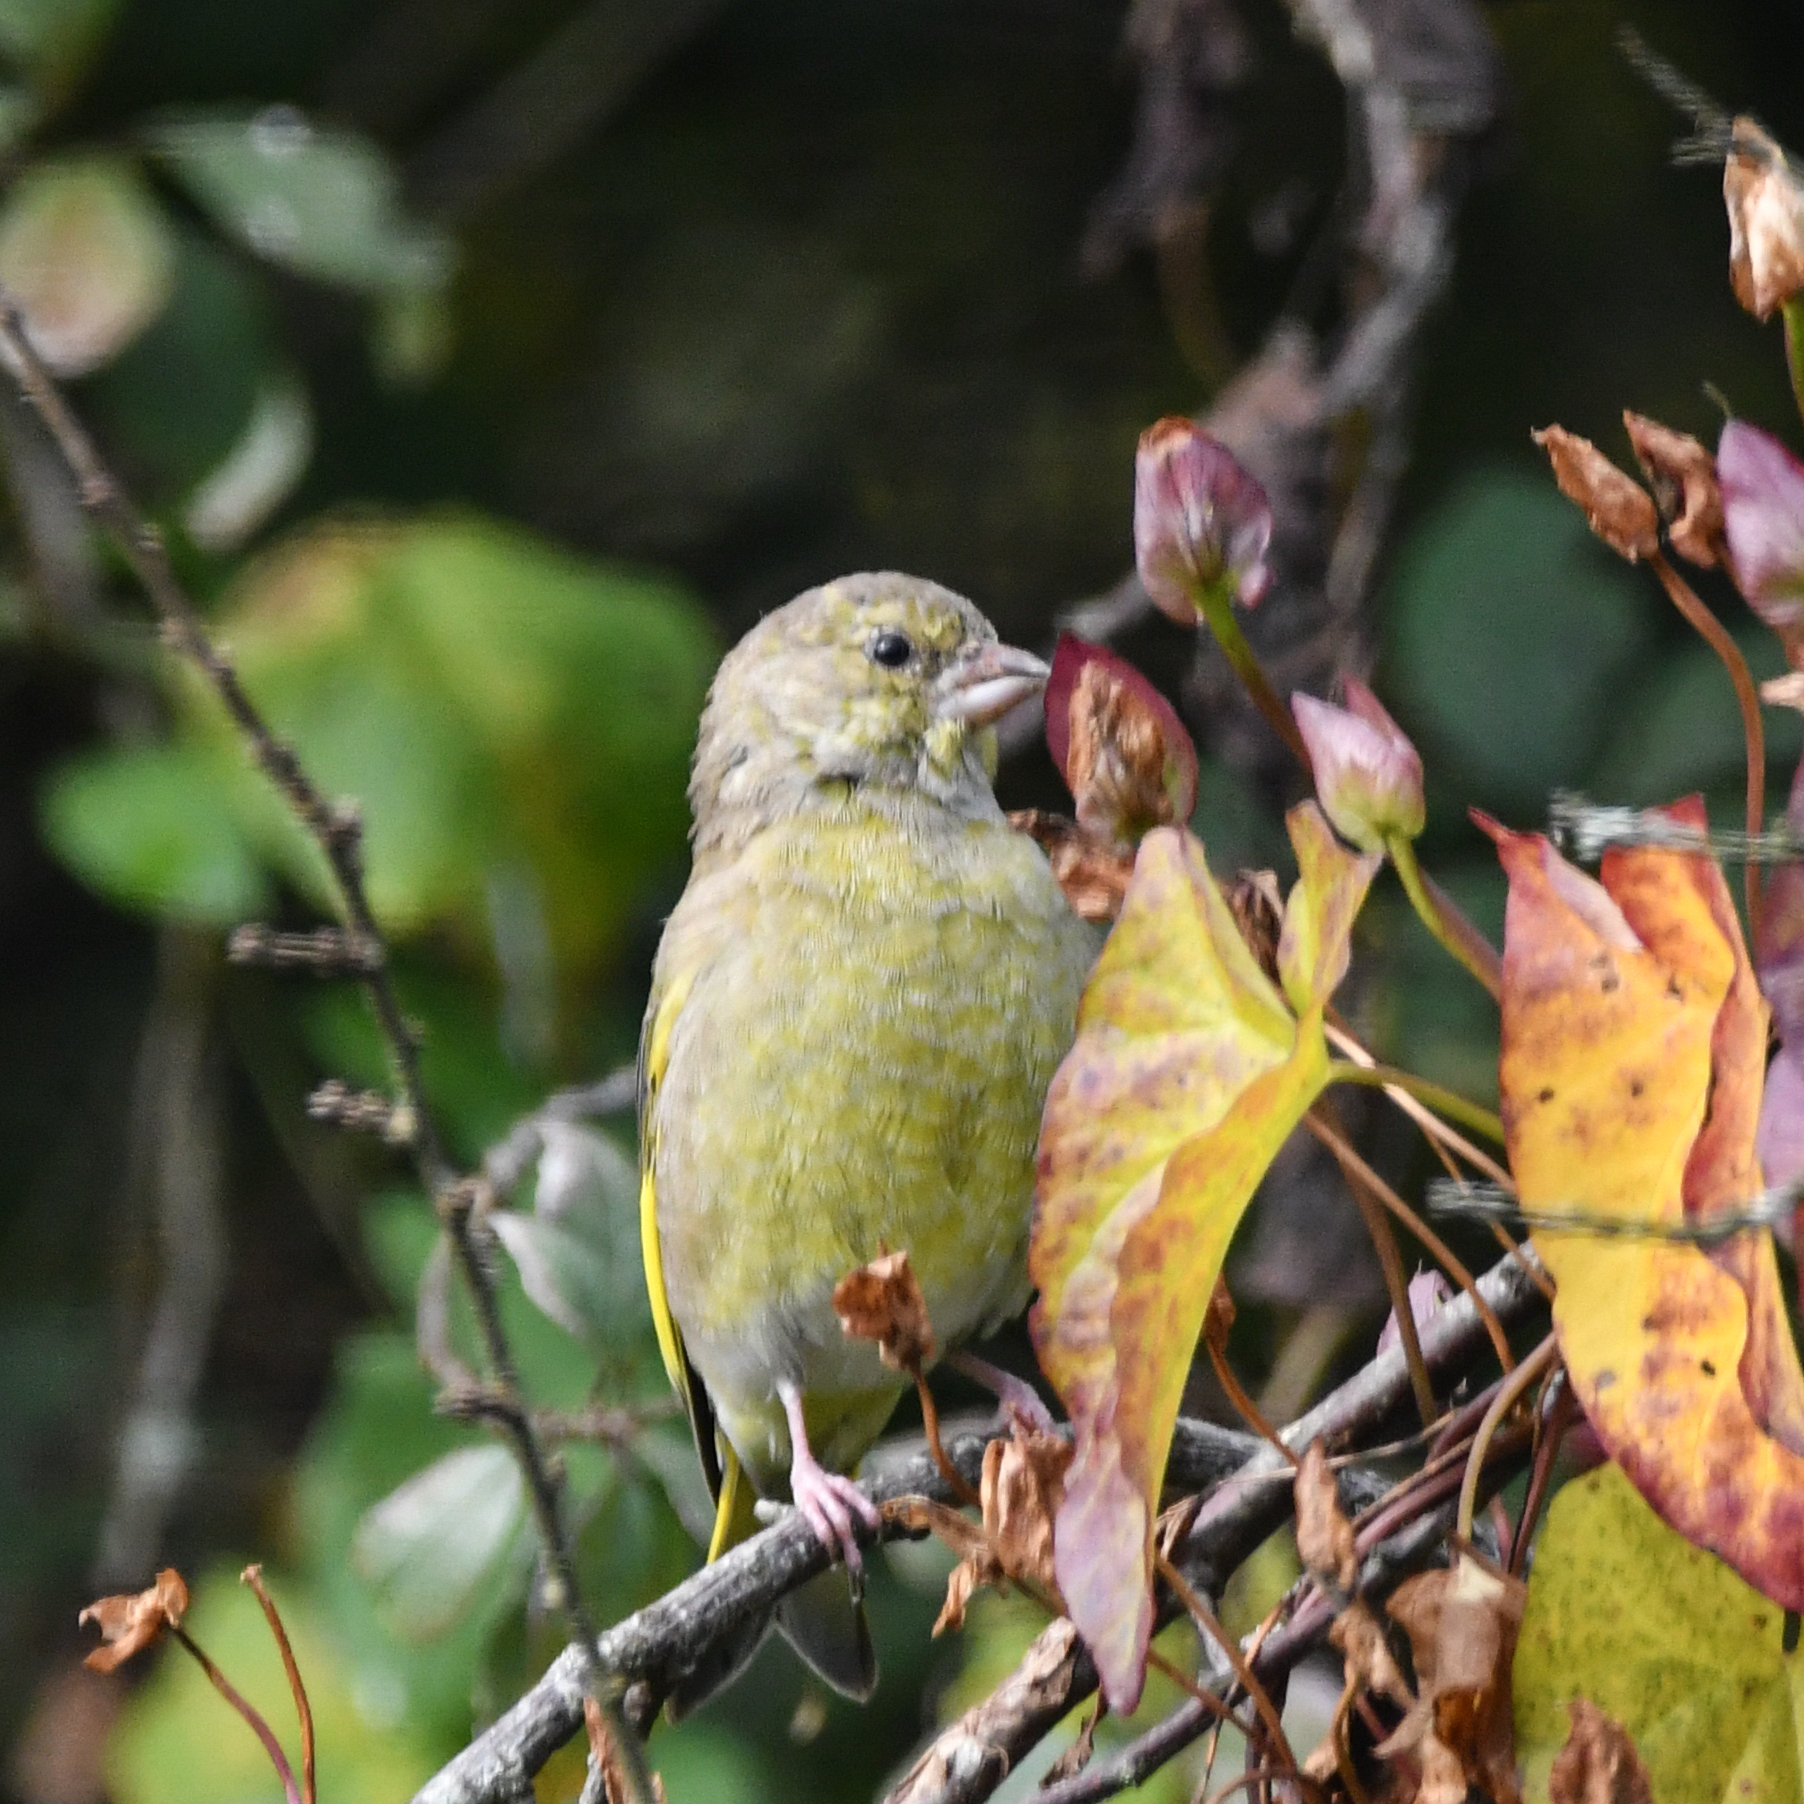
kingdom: Plantae
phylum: Tracheophyta
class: Liliopsida
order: Poales
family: Poaceae
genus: Chloris
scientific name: Chloris chloris
